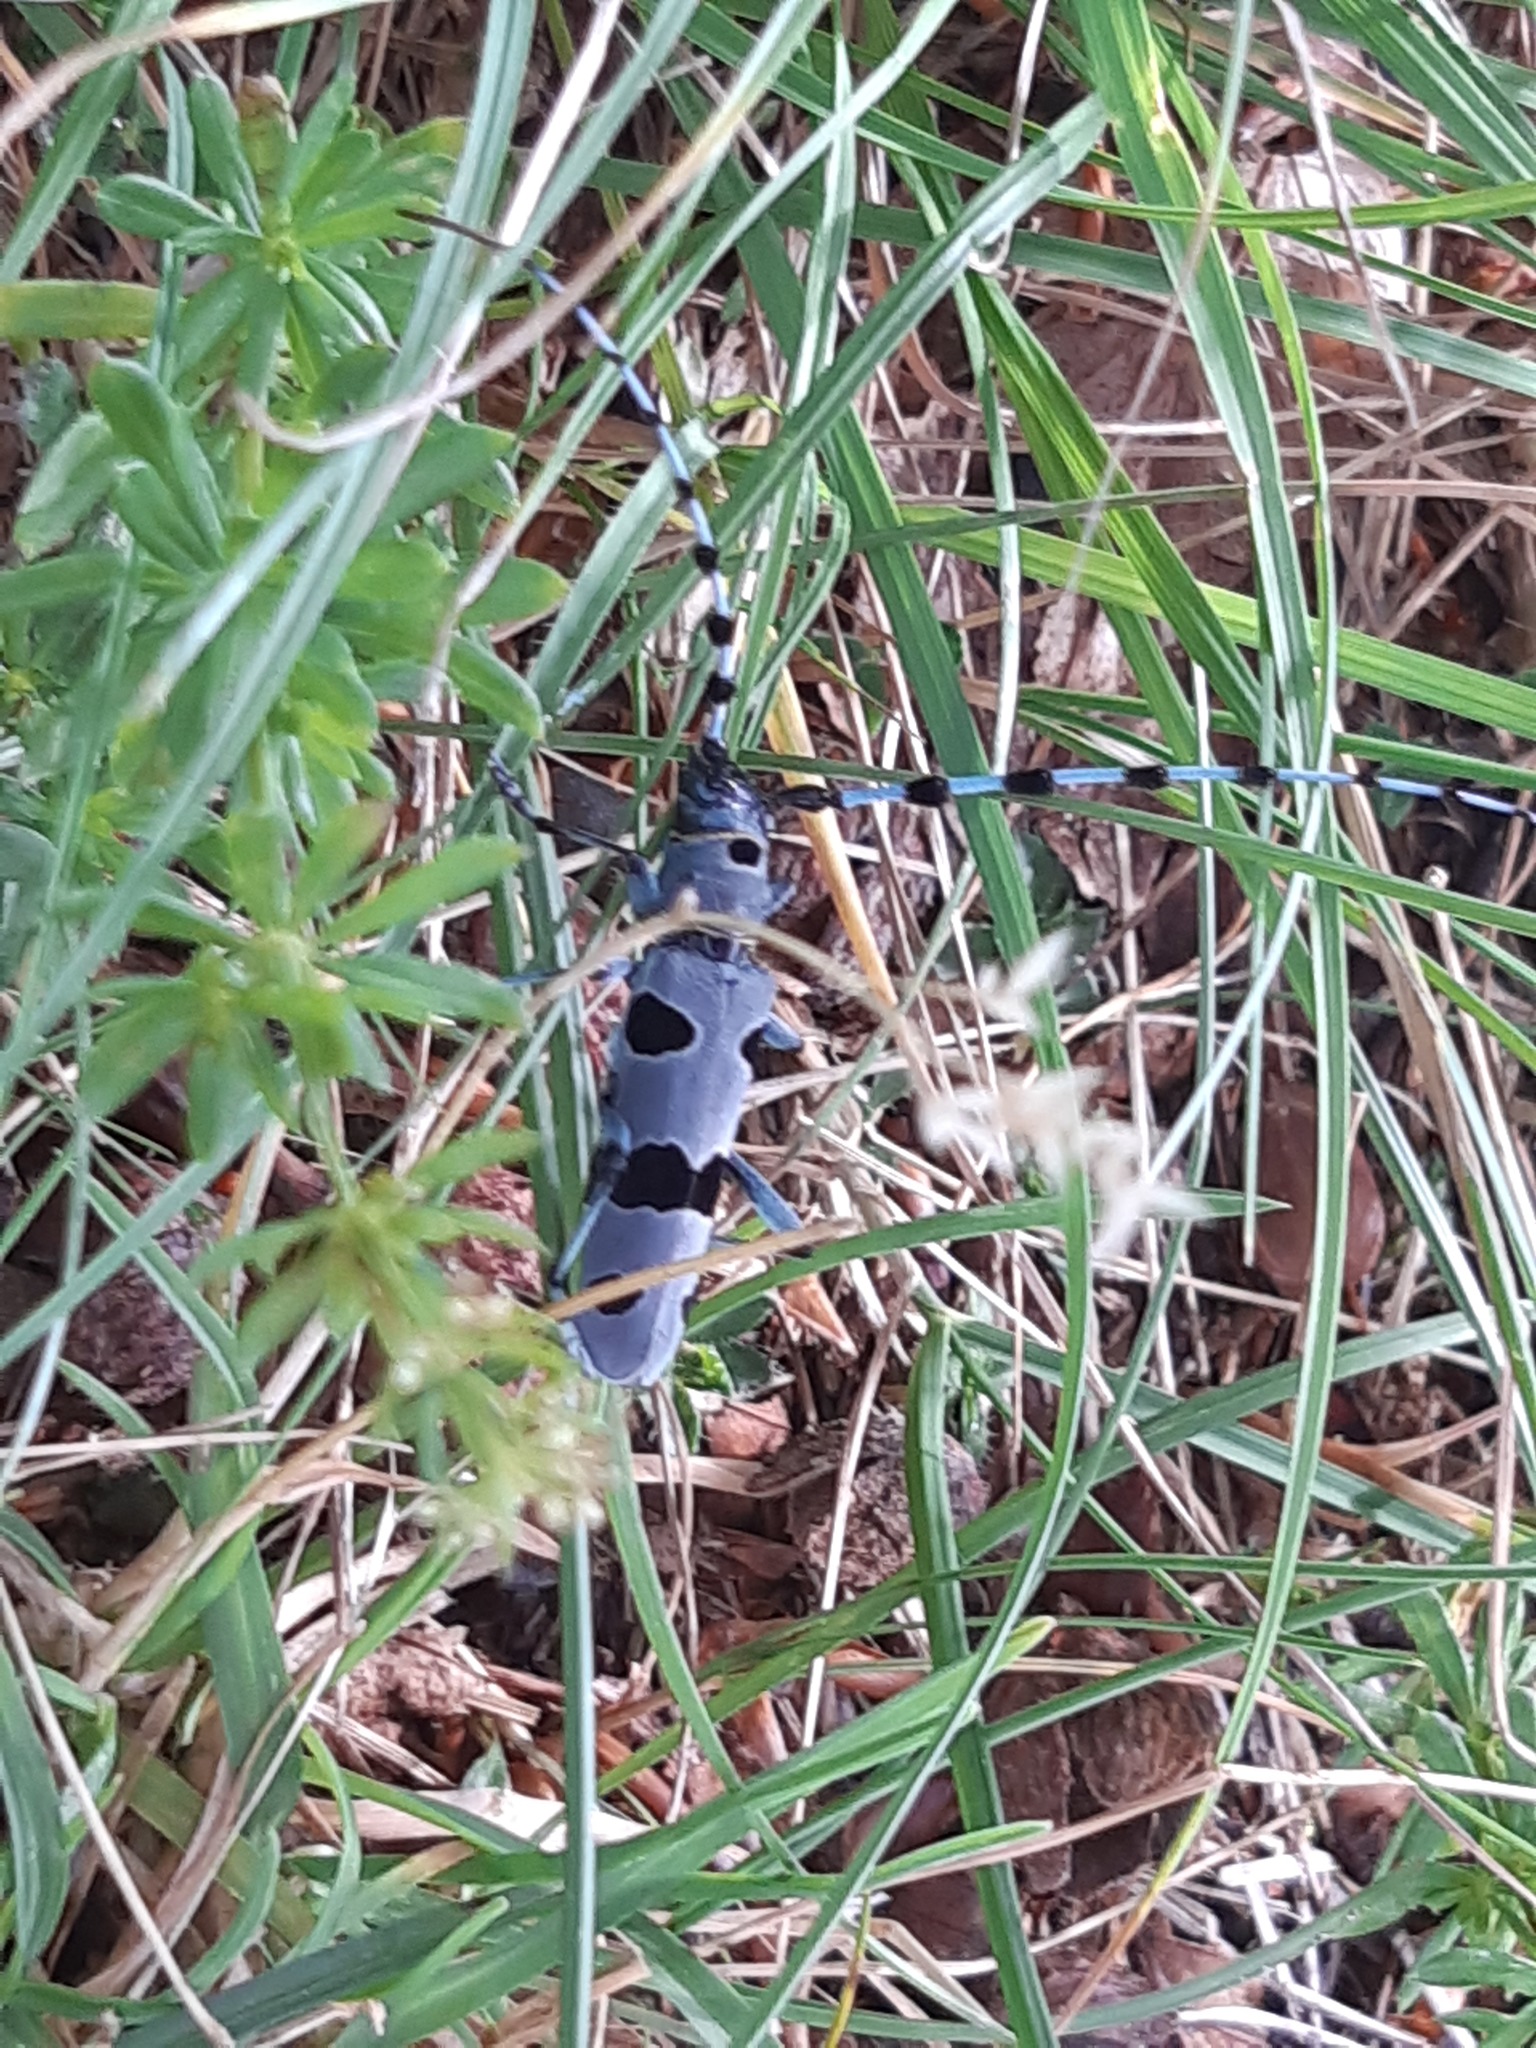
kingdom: Animalia
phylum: Arthropoda
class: Insecta
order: Coleoptera
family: Cerambycidae
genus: Rosalia
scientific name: Rosalia alpina
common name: Rosalia longicorn
